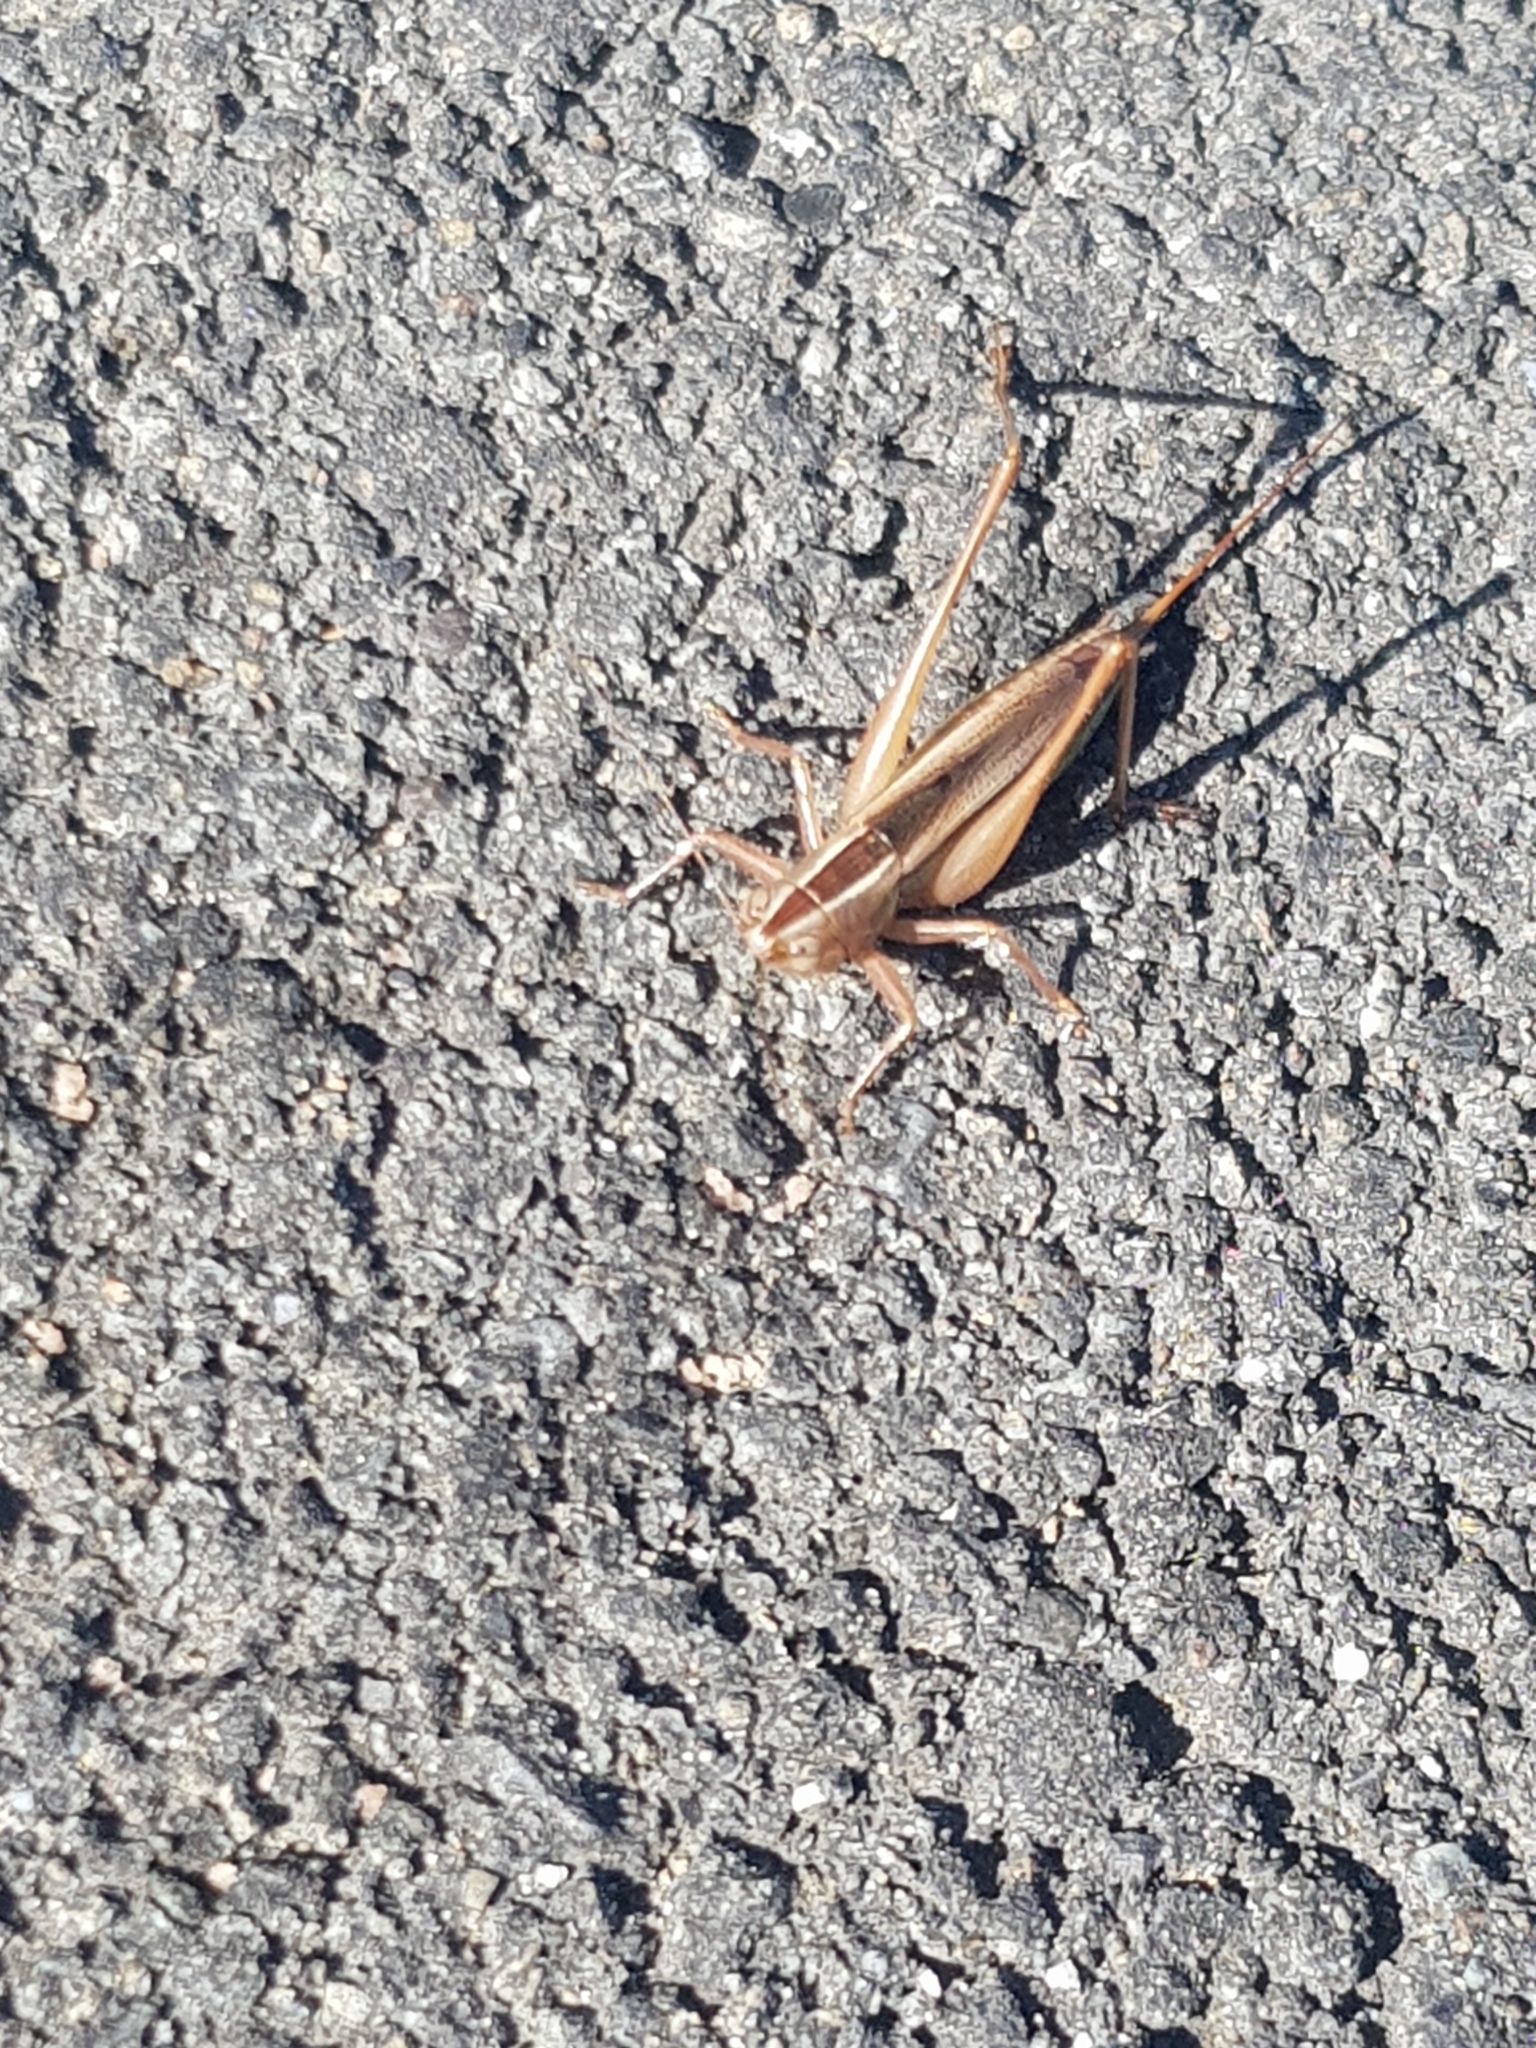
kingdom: Animalia
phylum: Arthropoda
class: Insecta
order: Orthoptera
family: Tettigoniidae
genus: Conocephalus
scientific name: Conocephalus albescens
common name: Whitish meadow katydid
